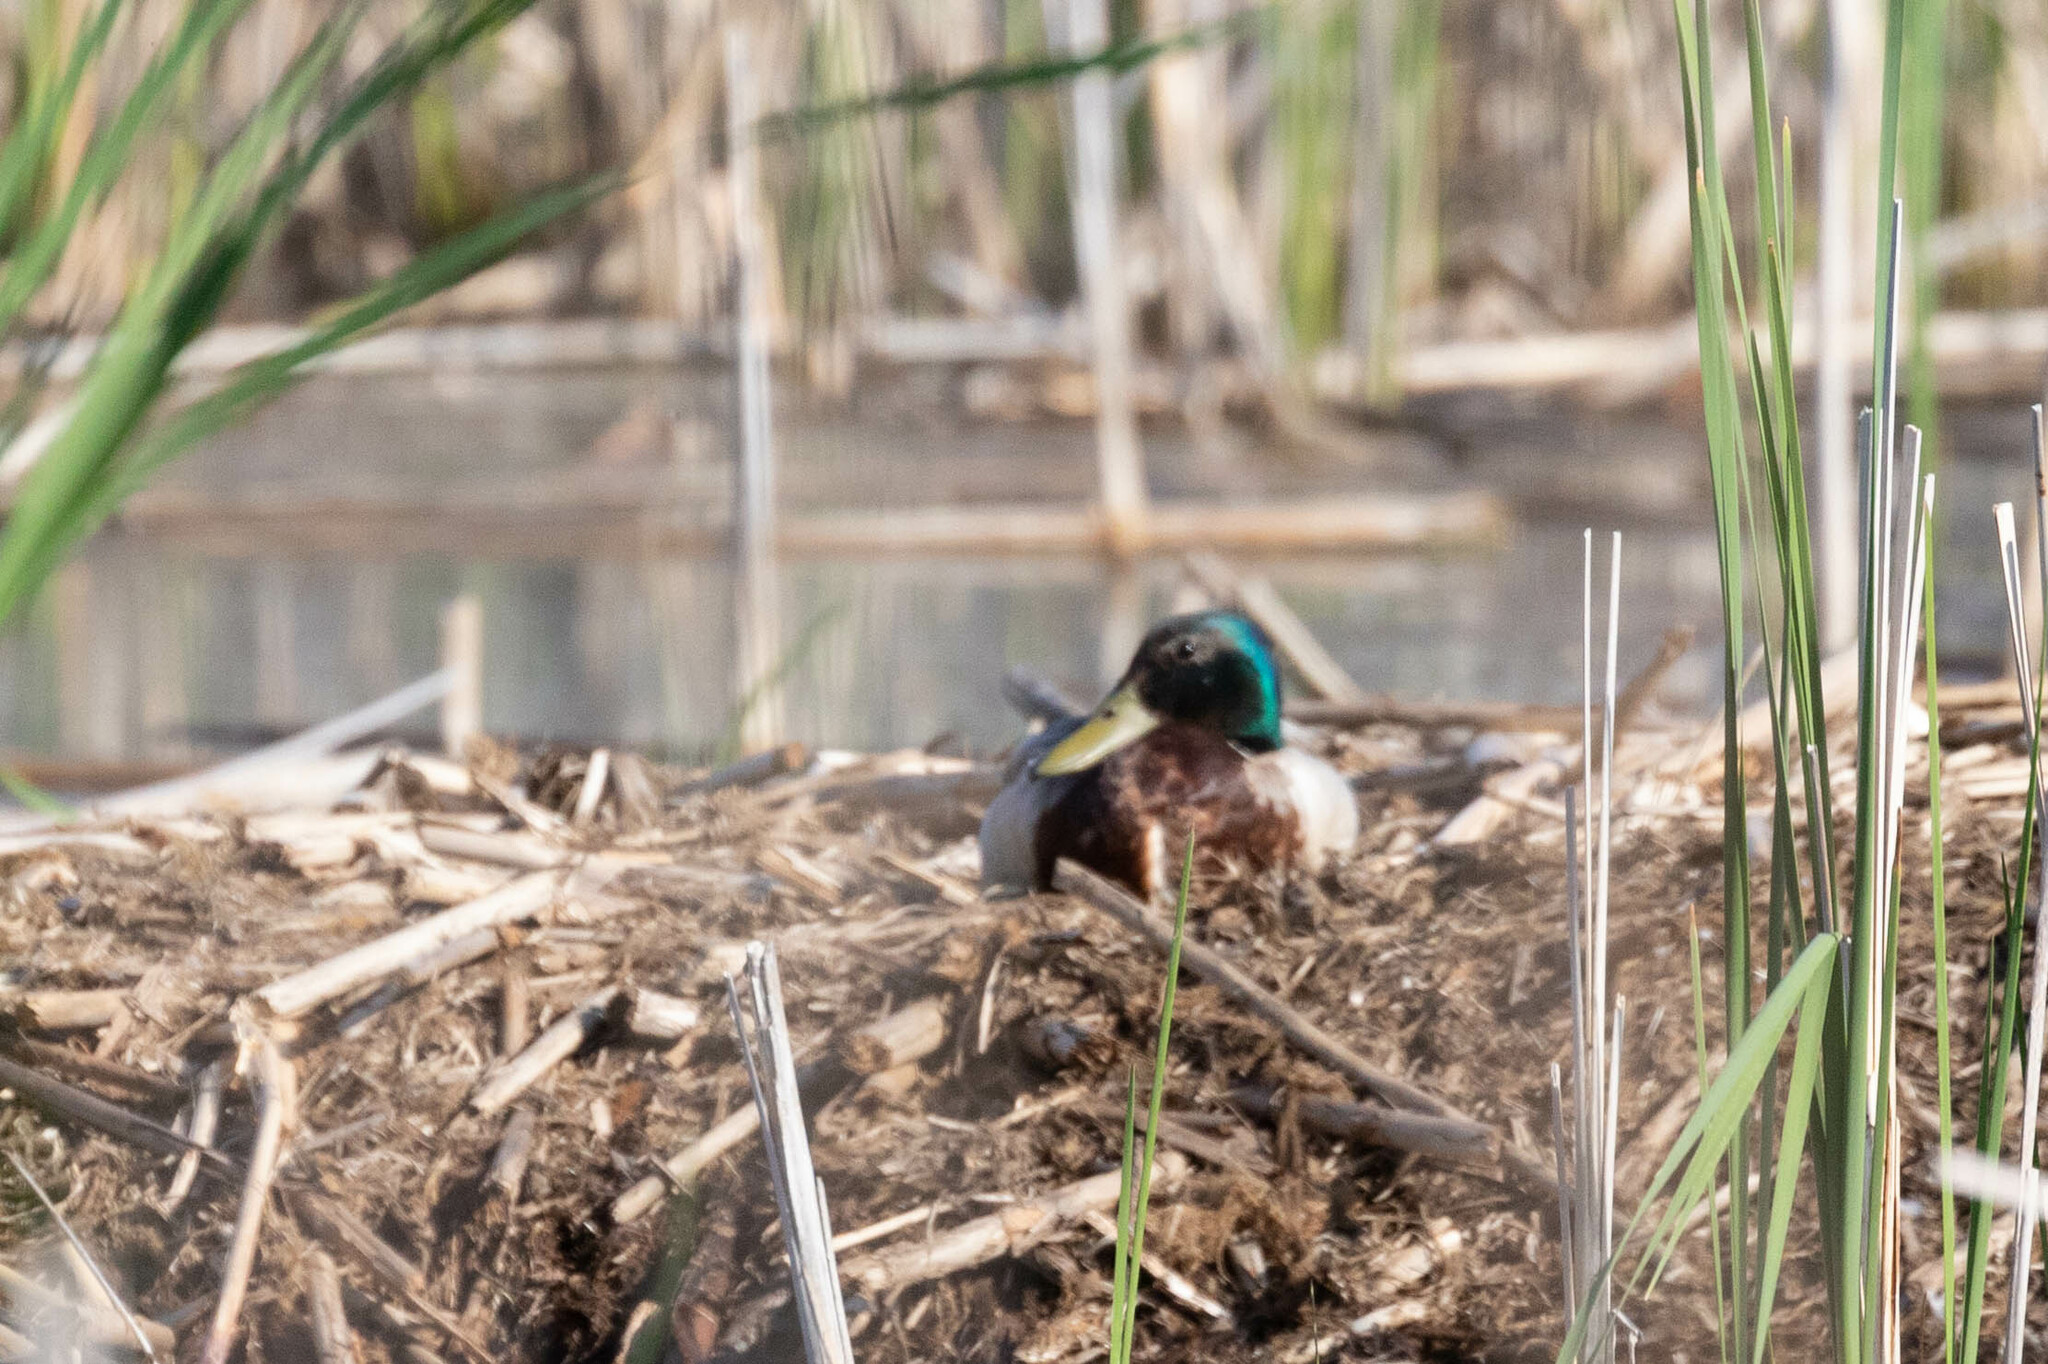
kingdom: Animalia
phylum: Chordata
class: Aves
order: Anseriformes
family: Anatidae
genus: Anas
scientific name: Anas platyrhynchos
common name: Mallard
